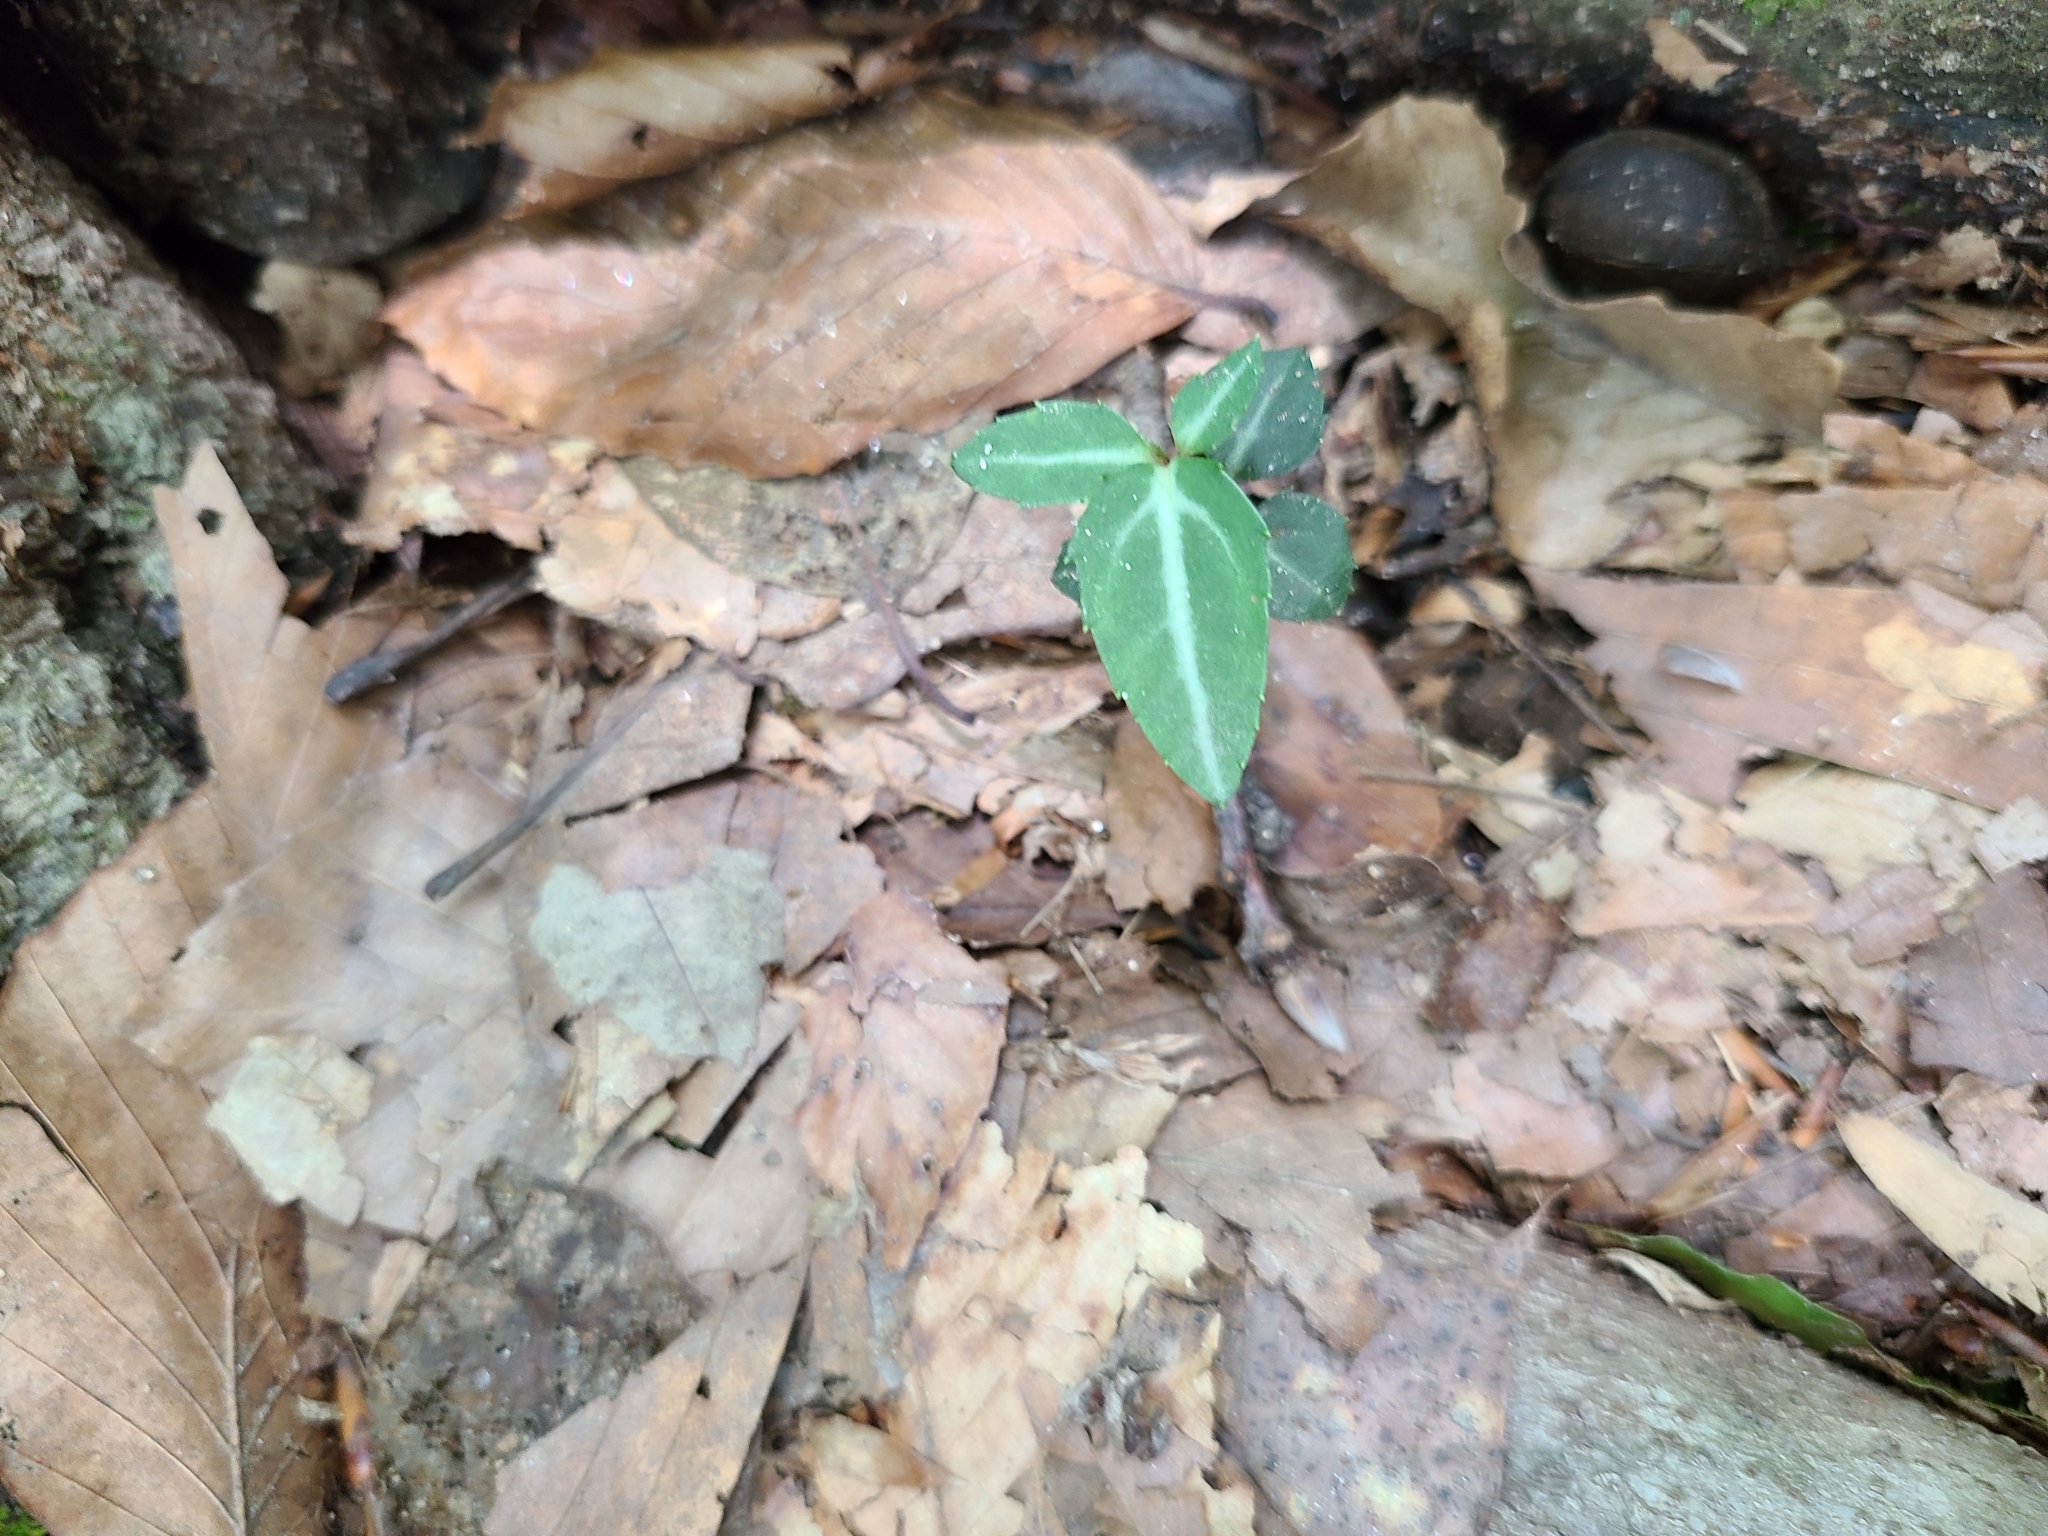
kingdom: Plantae
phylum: Tracheophyta
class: Magnoliopsida
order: Ericales
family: Ericaceae
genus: Chimaphila
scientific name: Chimaphila maculata
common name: Spotted pipsissewa
